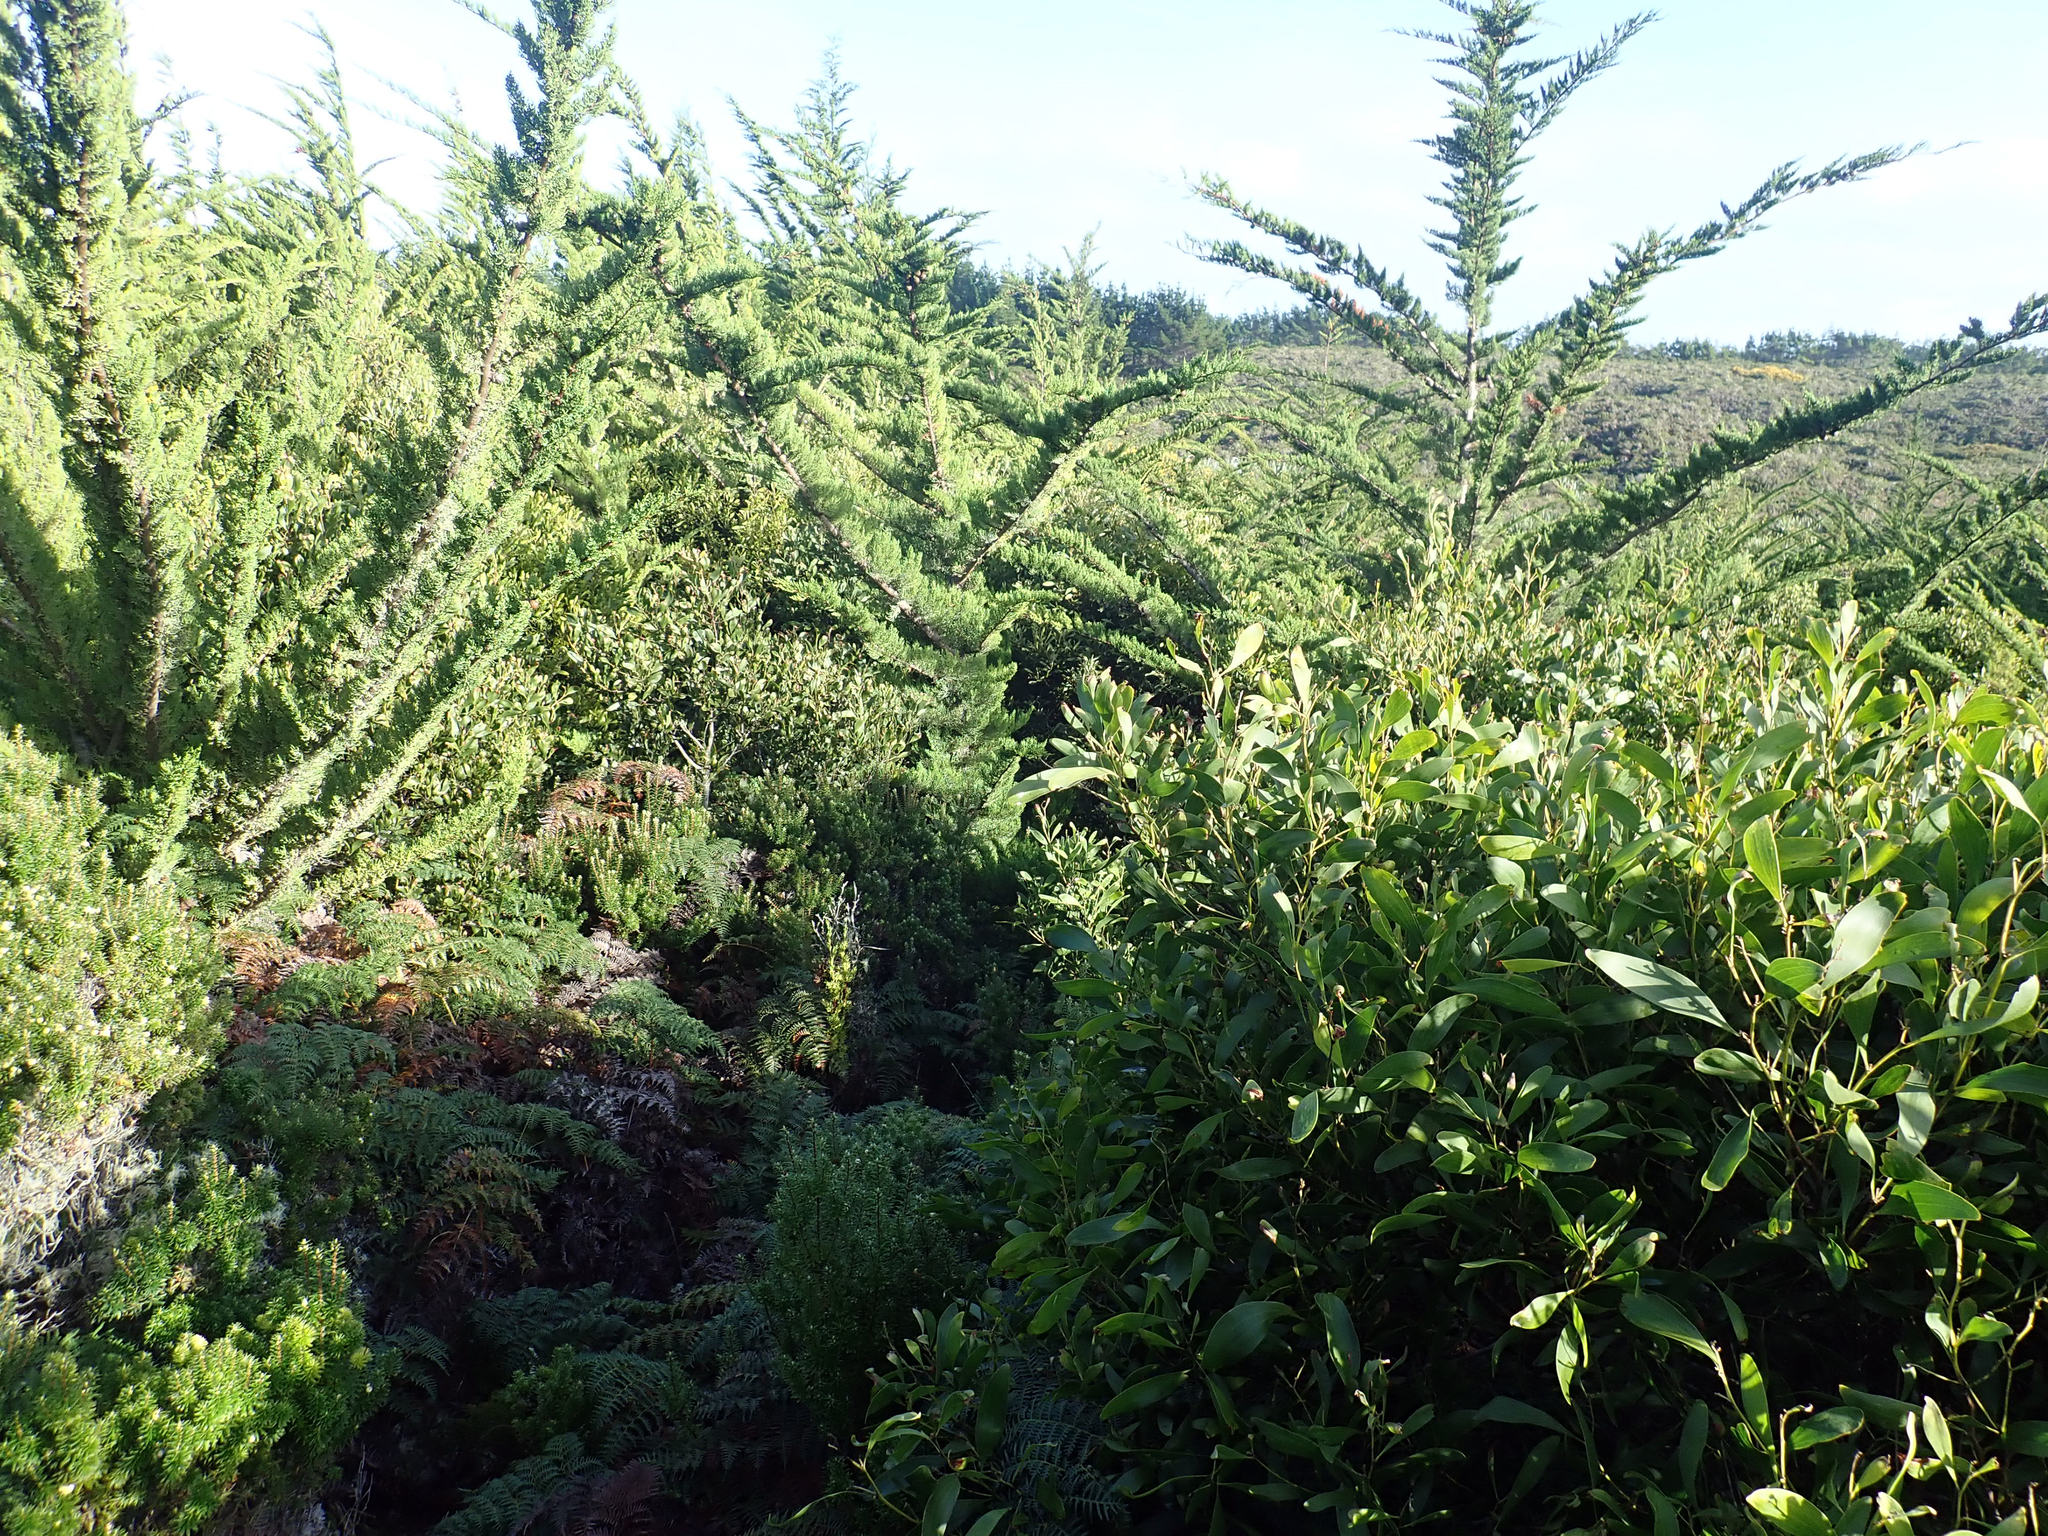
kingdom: Plantae
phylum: Tracheophyta
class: Magnoliopsida
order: Fabales
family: Fabaceae
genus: Acacia
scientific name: Acacia longifolia
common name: Sydney golden wattle
